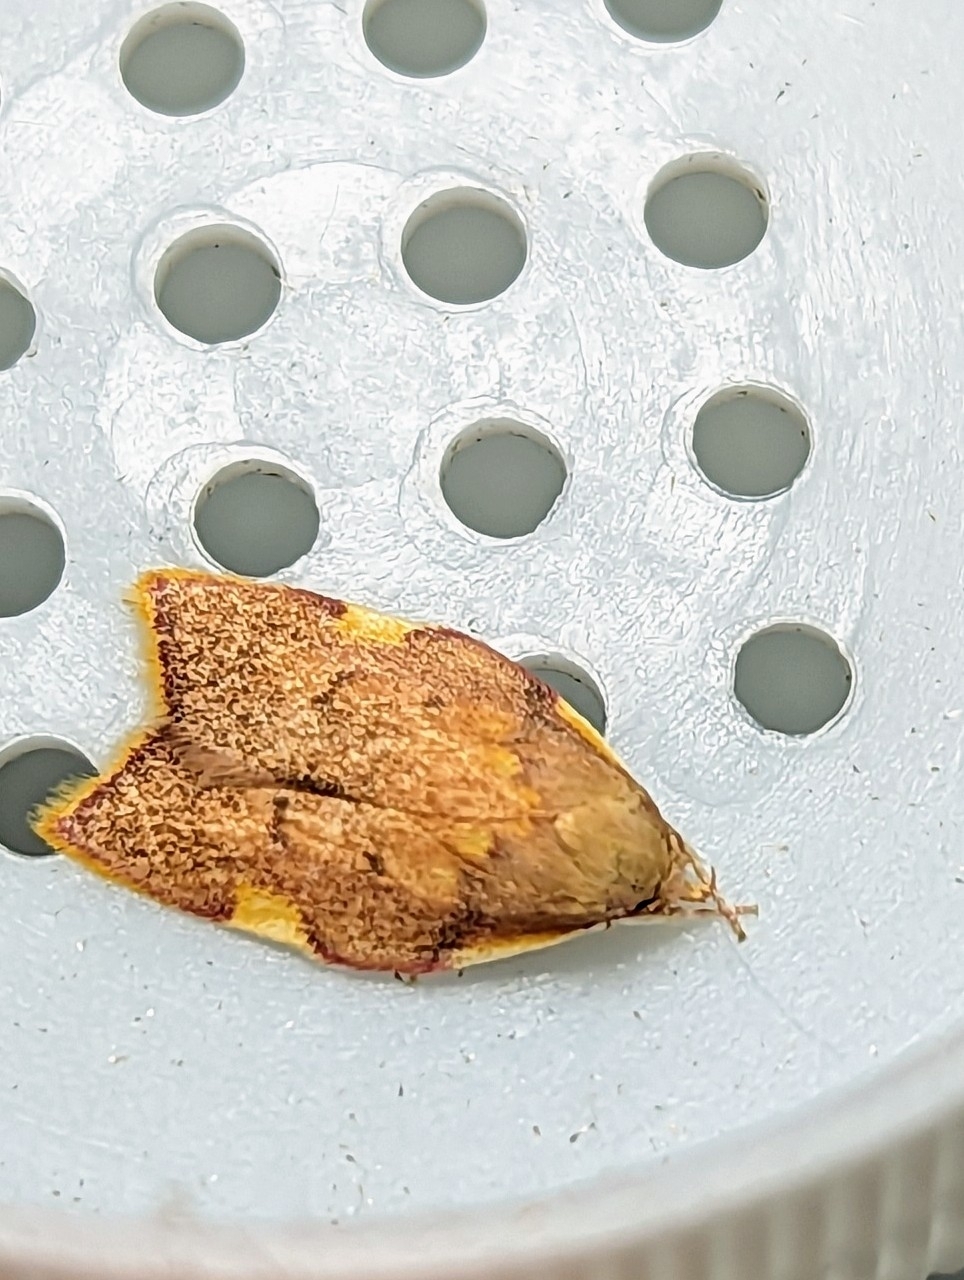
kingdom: Animalia
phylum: Arthropoda
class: Insecta
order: Lepidoptera
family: Peleopodidae
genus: Carcina
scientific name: Carcina quercana
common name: Moth
